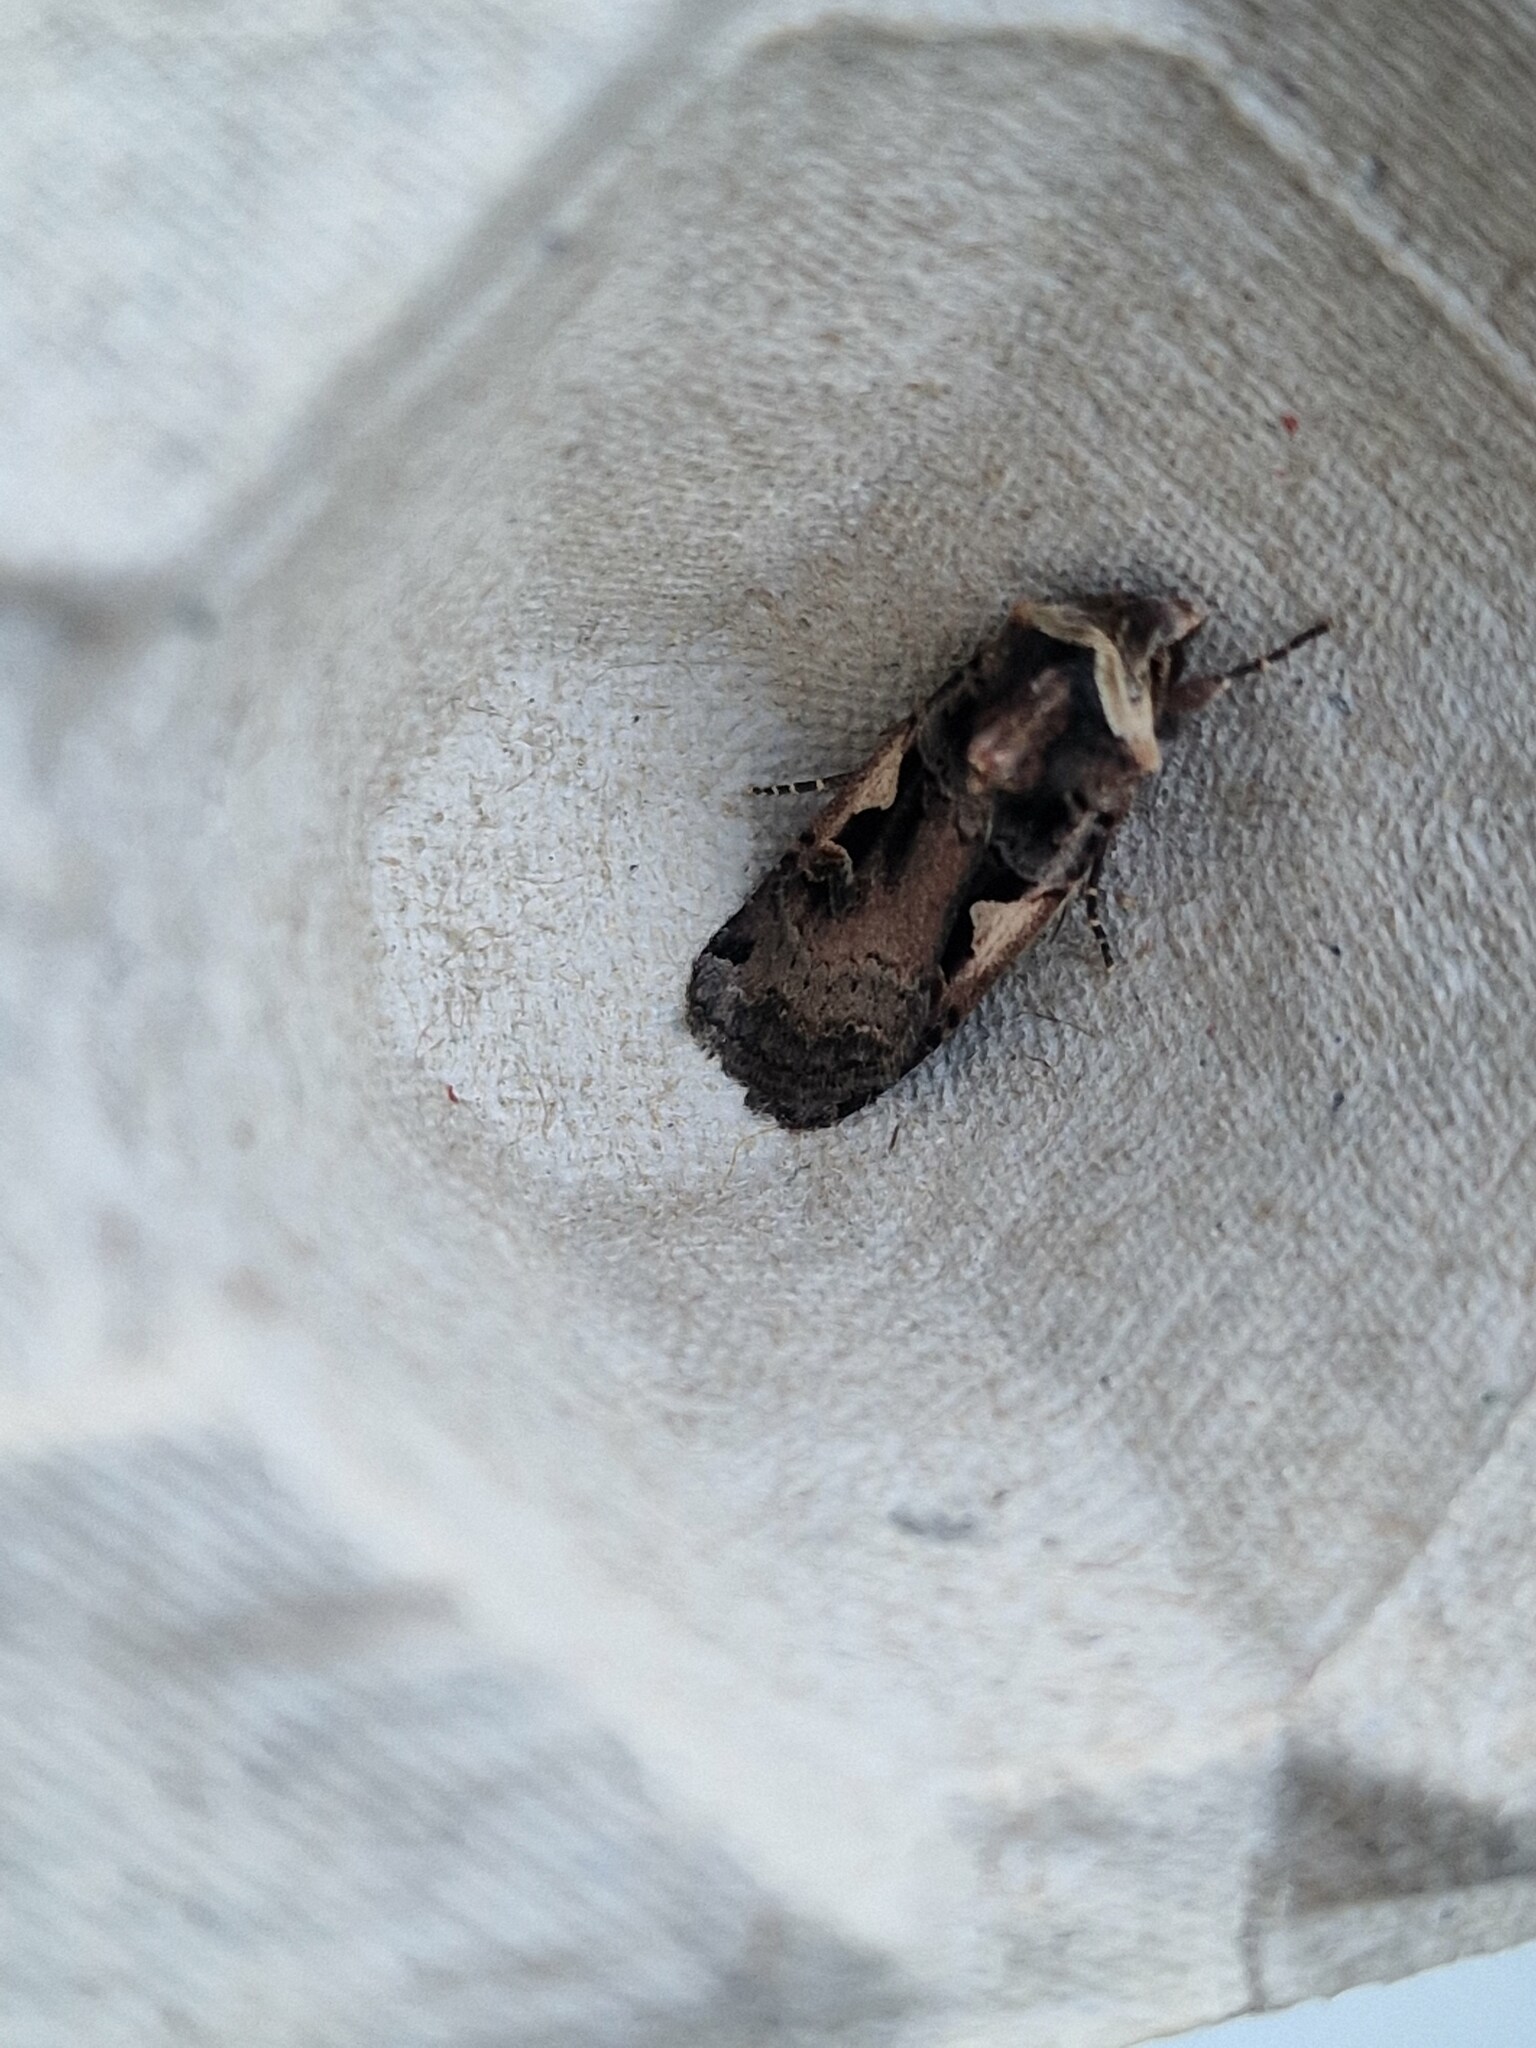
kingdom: Animalia
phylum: Arthropoda
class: Insecta
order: Lepidoptera
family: Noctuidae
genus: Xestia
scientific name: Xestia c-nigrum
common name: Setaceous hebrew character
